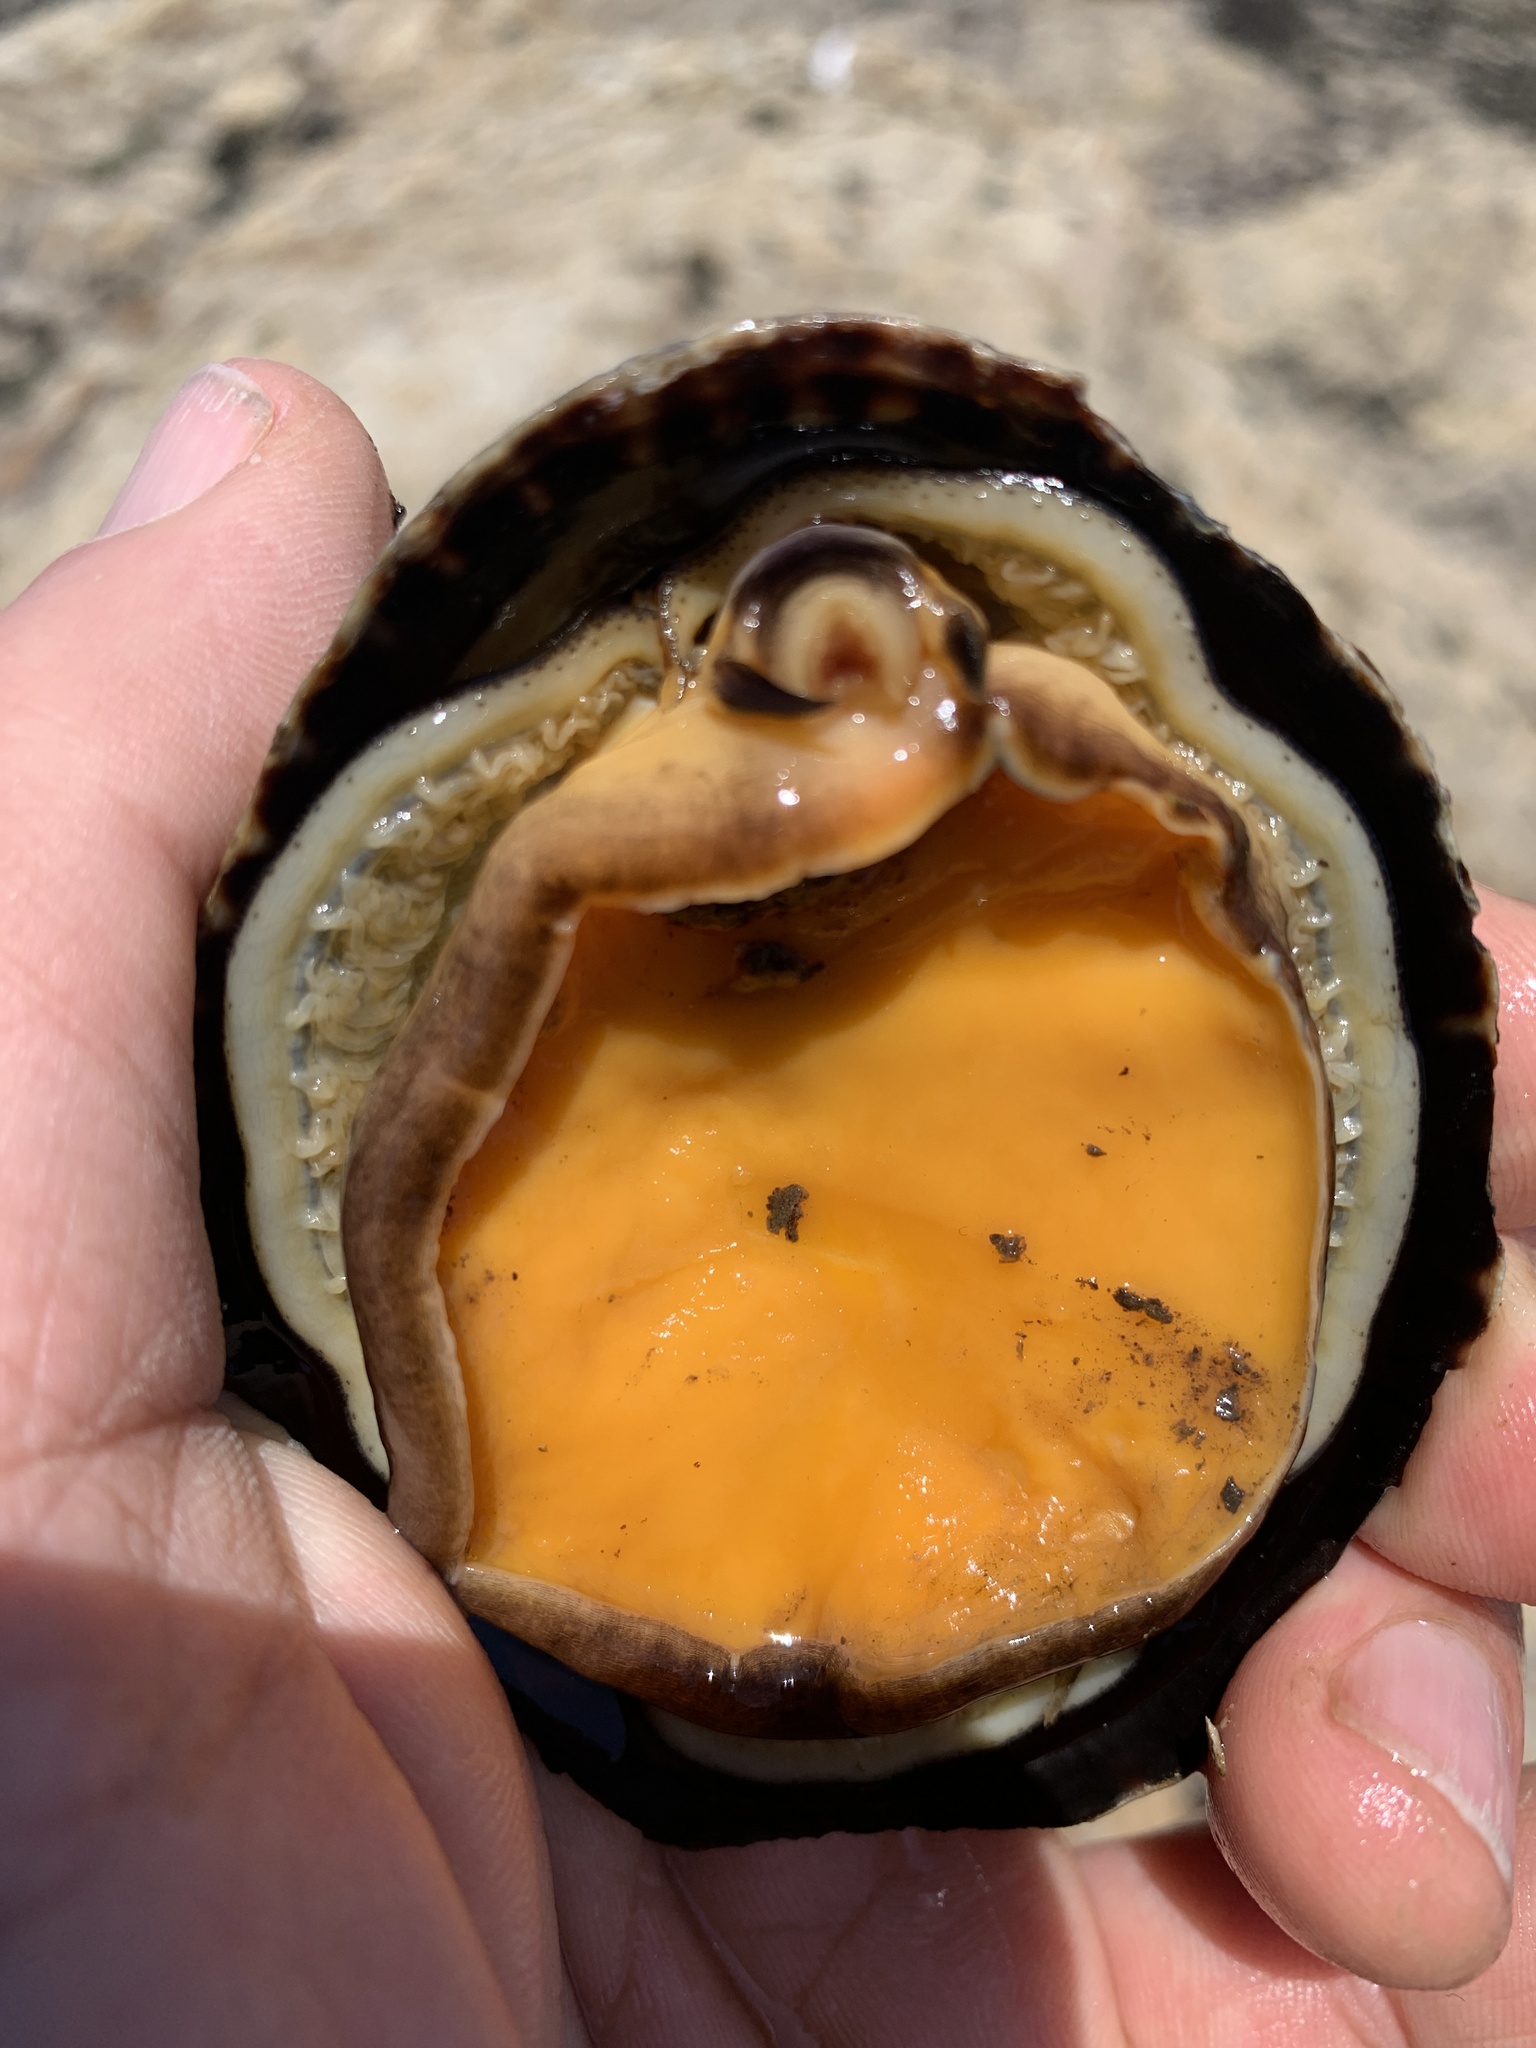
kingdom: Animalia
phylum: Mollusca
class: Gastropoda
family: Lottiidae
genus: Lottia
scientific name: Lottia gigantea
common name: Owl limpet
